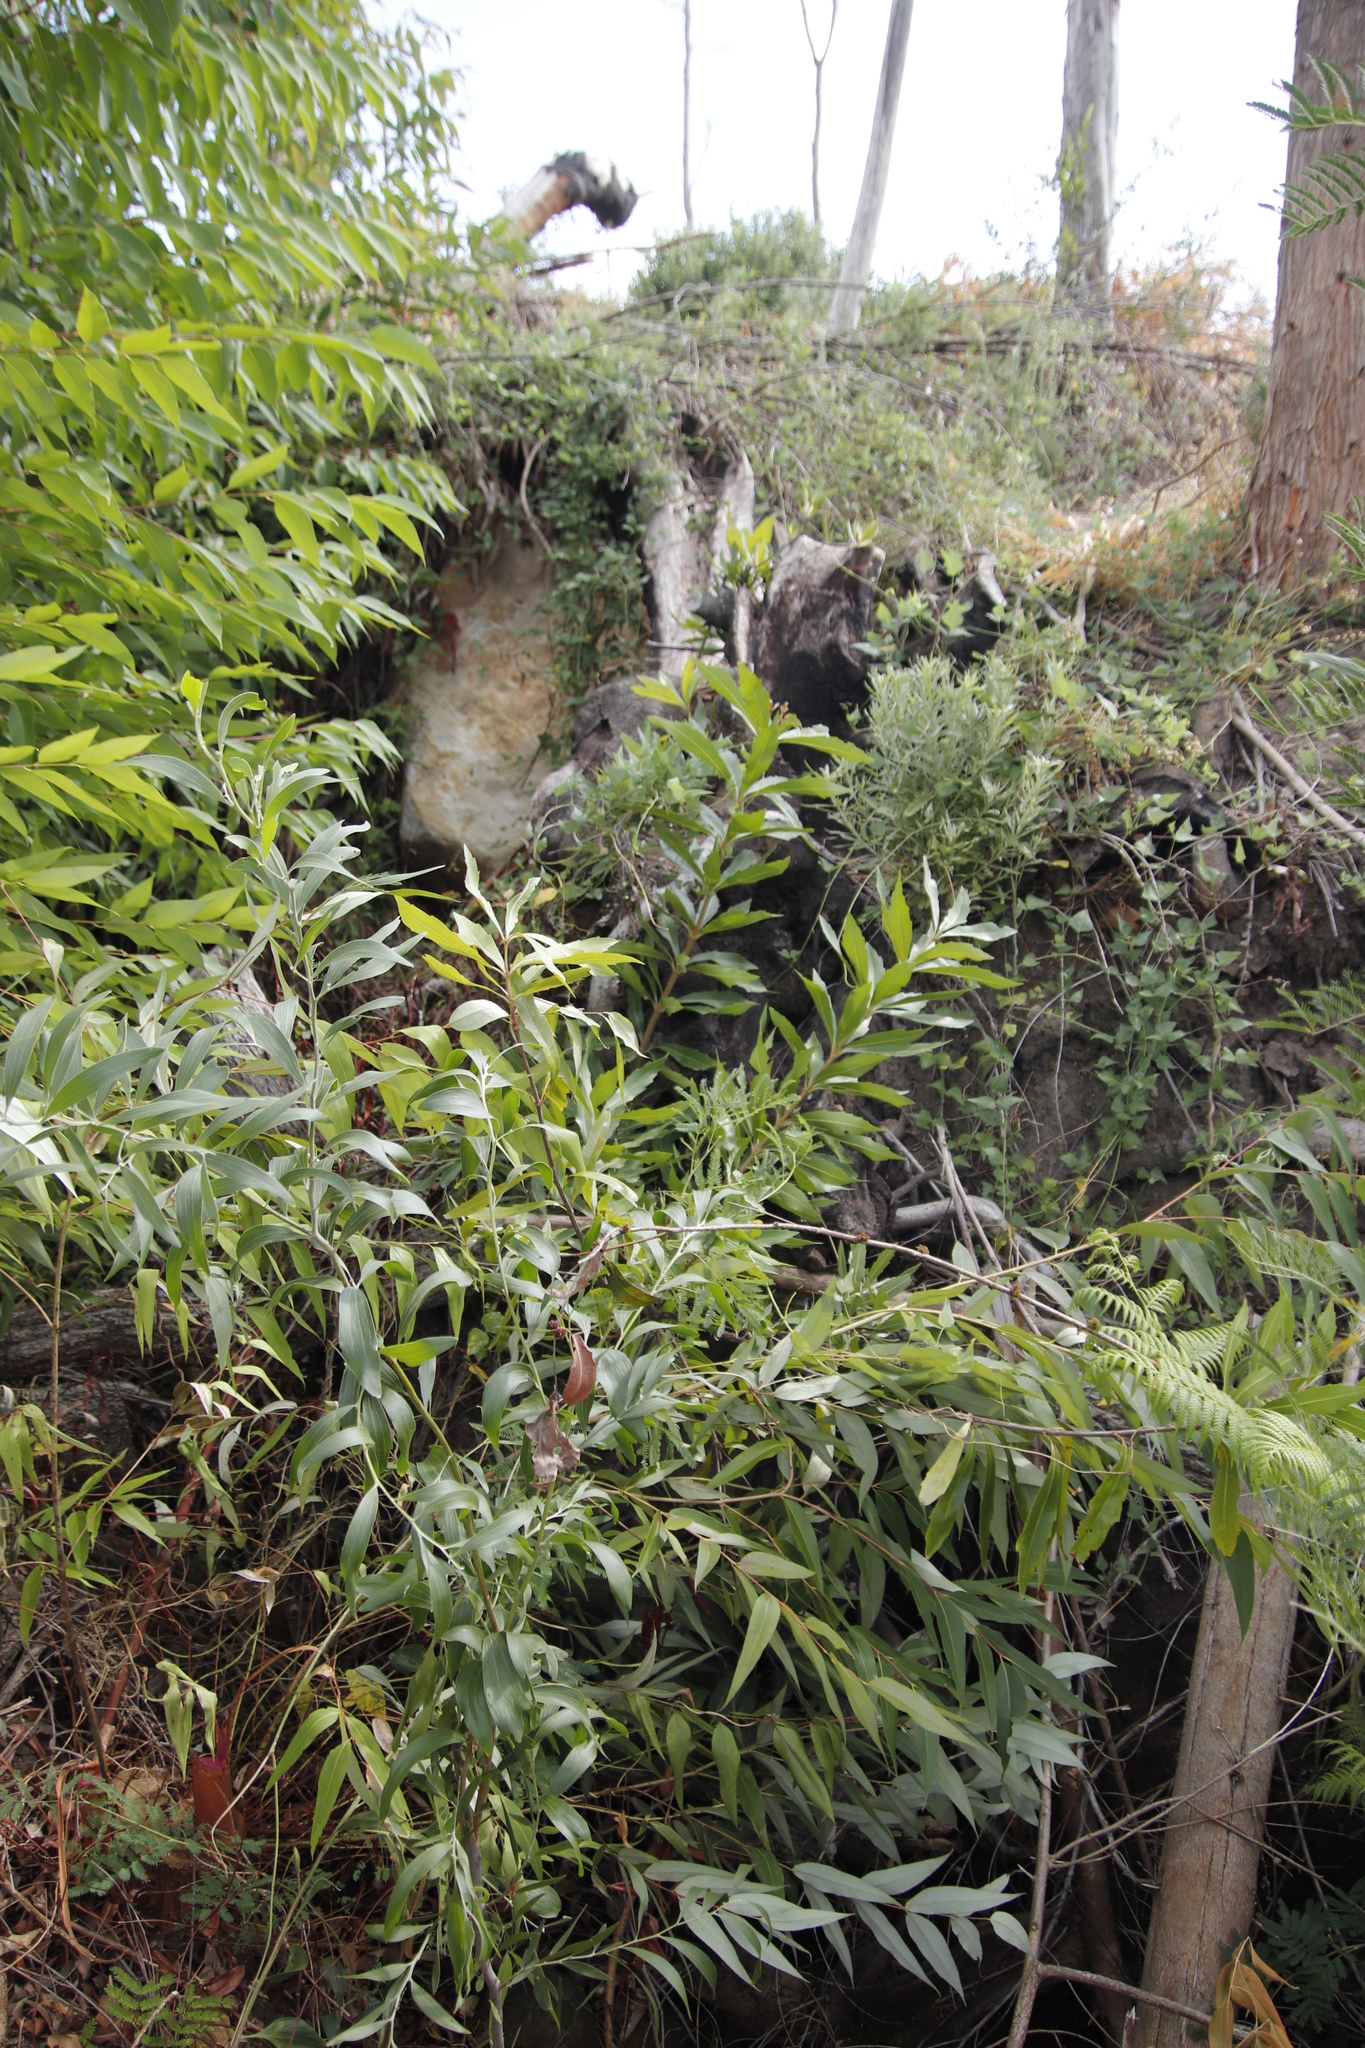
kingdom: Plantae
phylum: Tracheophyta
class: Magnoliopsida
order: Proteales
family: Proteaceae
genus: Brabejum
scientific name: Brabejum stellatifolium
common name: Wild almond
